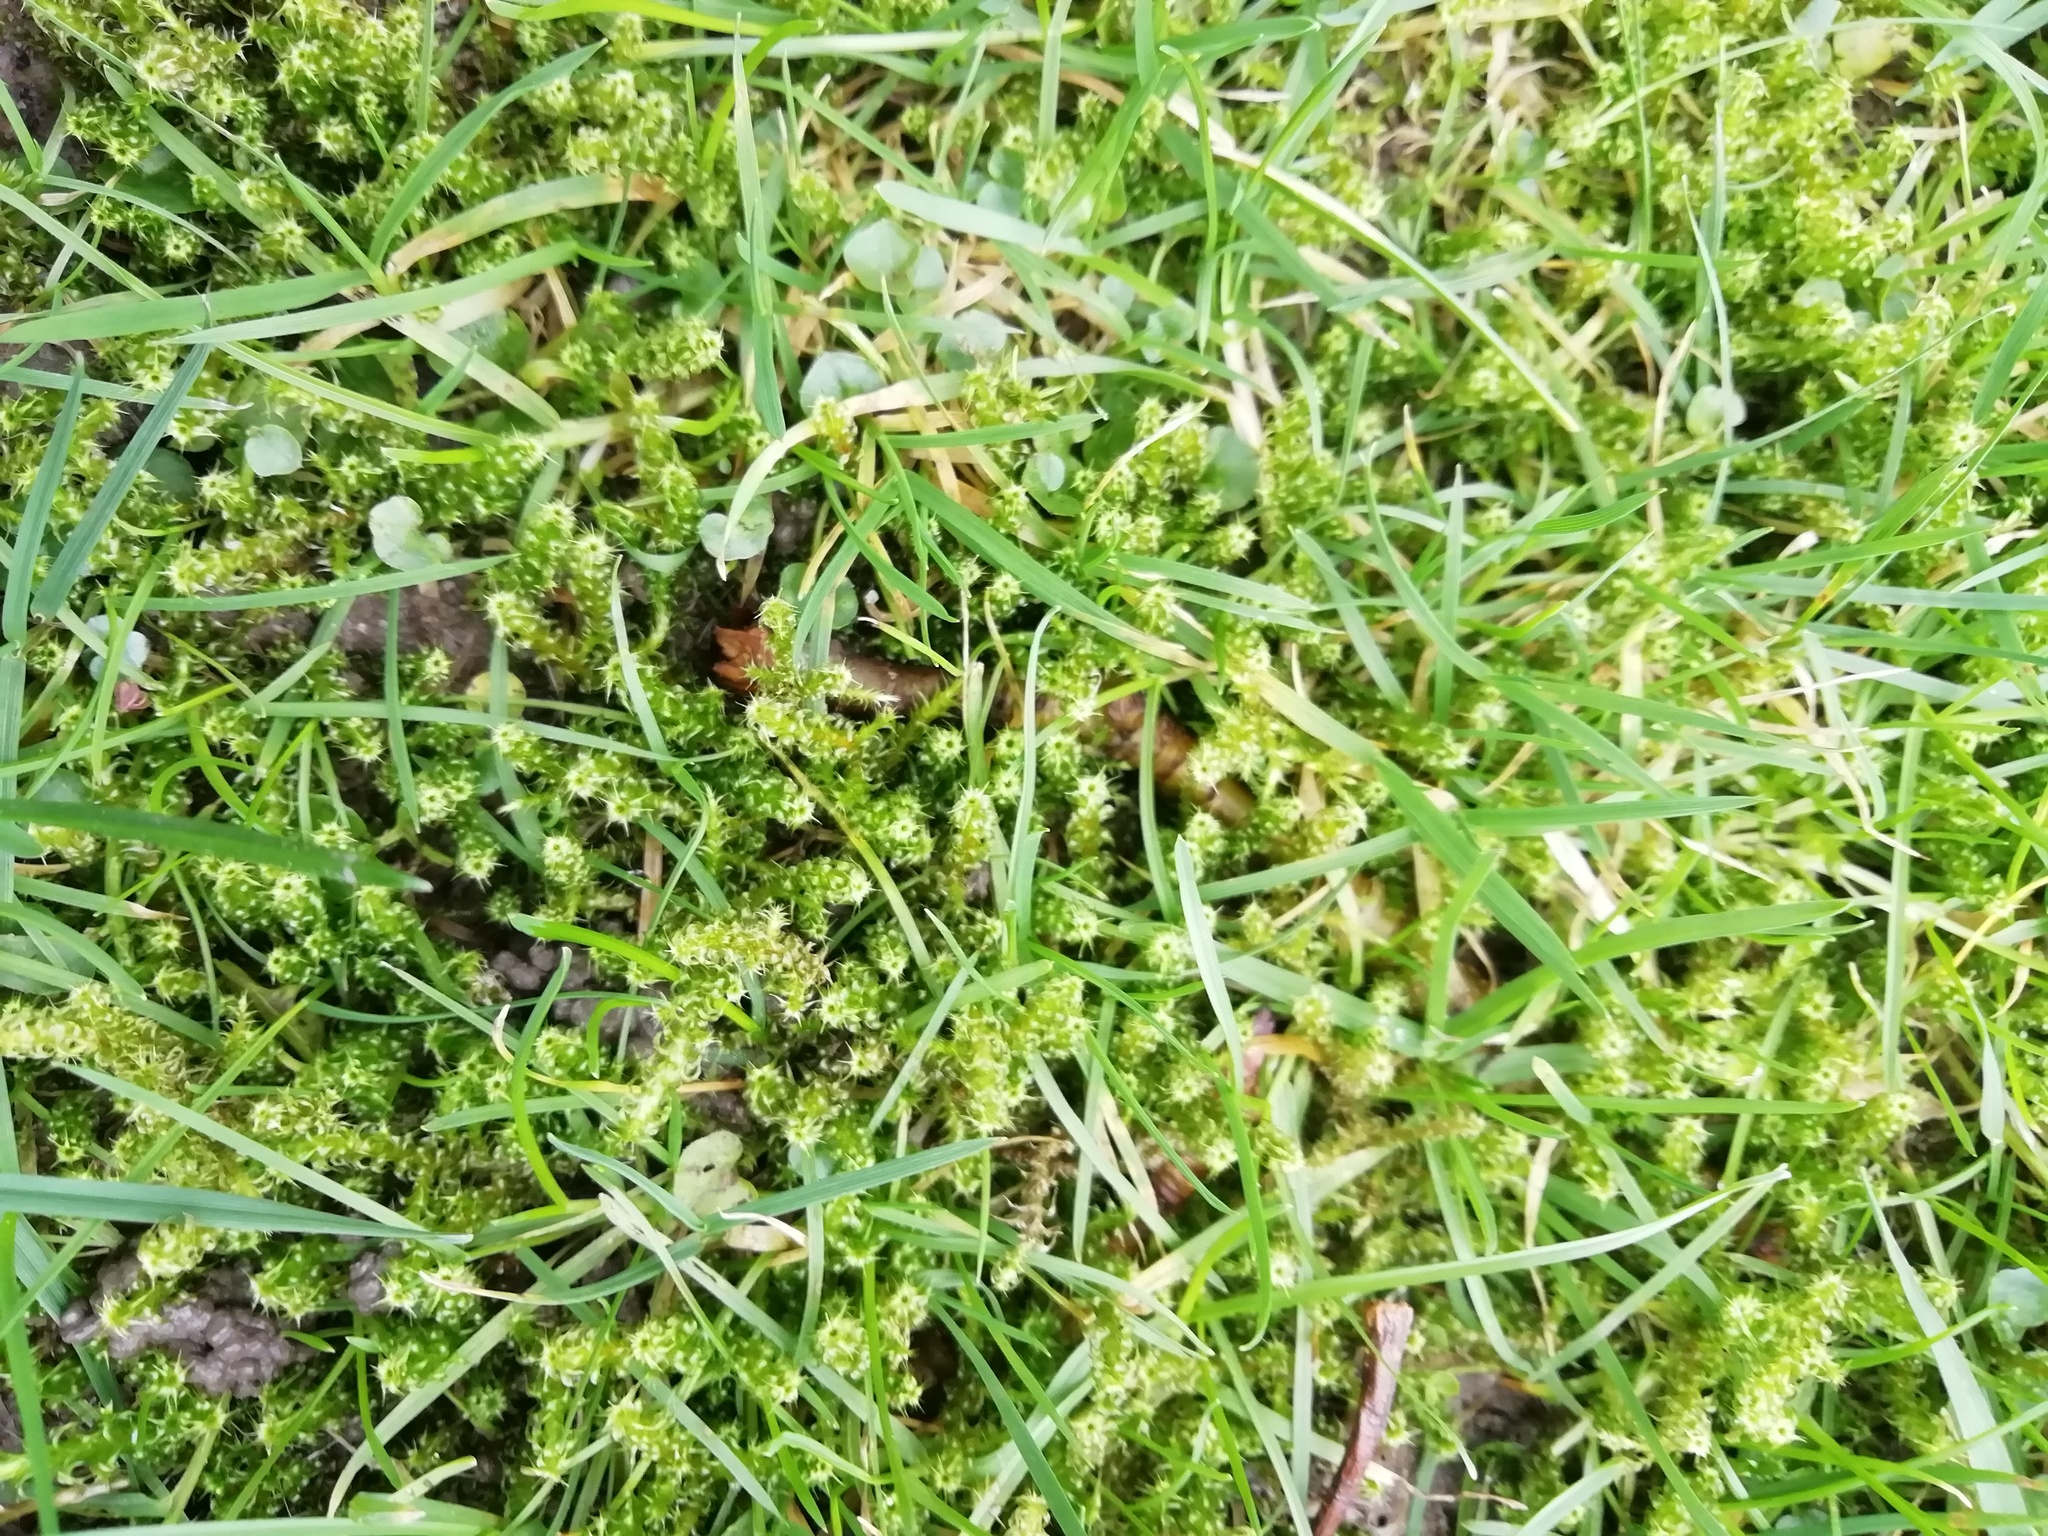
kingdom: Plantae
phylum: Bryophyta
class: Bryopsida
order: Hypnales
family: Hylocomiaceae
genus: Rhytidiadelphus
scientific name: Rhytidiadelphus squarrosus
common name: Springy turf-moss
